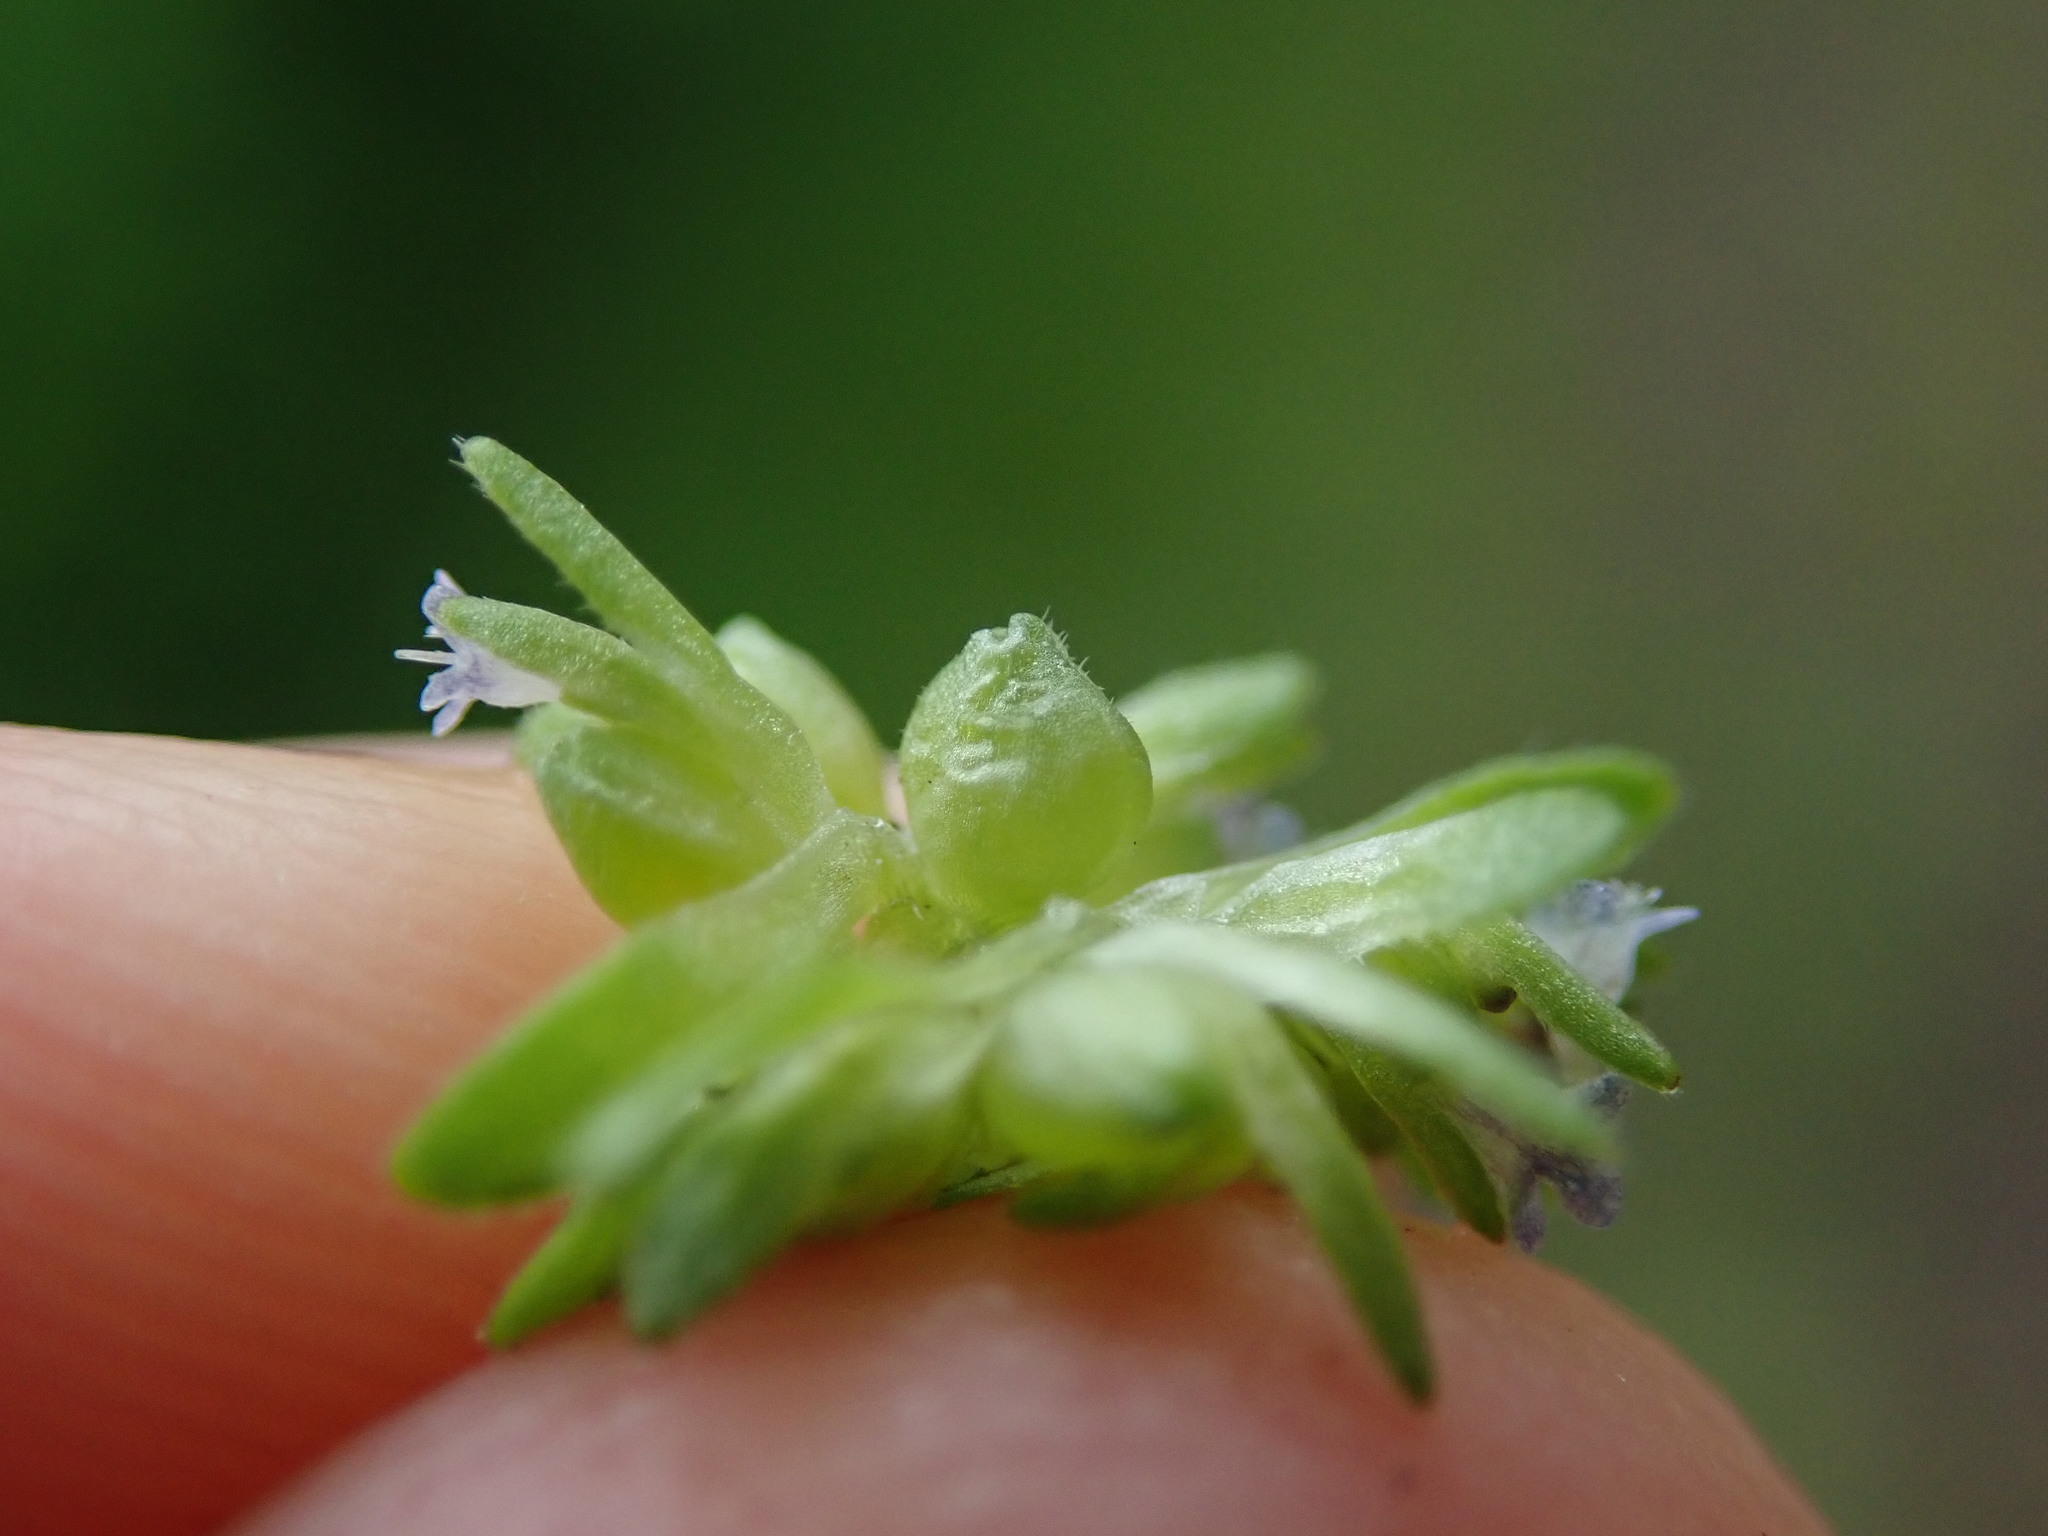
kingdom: Plantae
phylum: Tracheophyta
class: Magnoliopsida
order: Dipsacales
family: Caprifoliaceae
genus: Valerianella
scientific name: Valerianella locusta
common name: Common cornsalad
